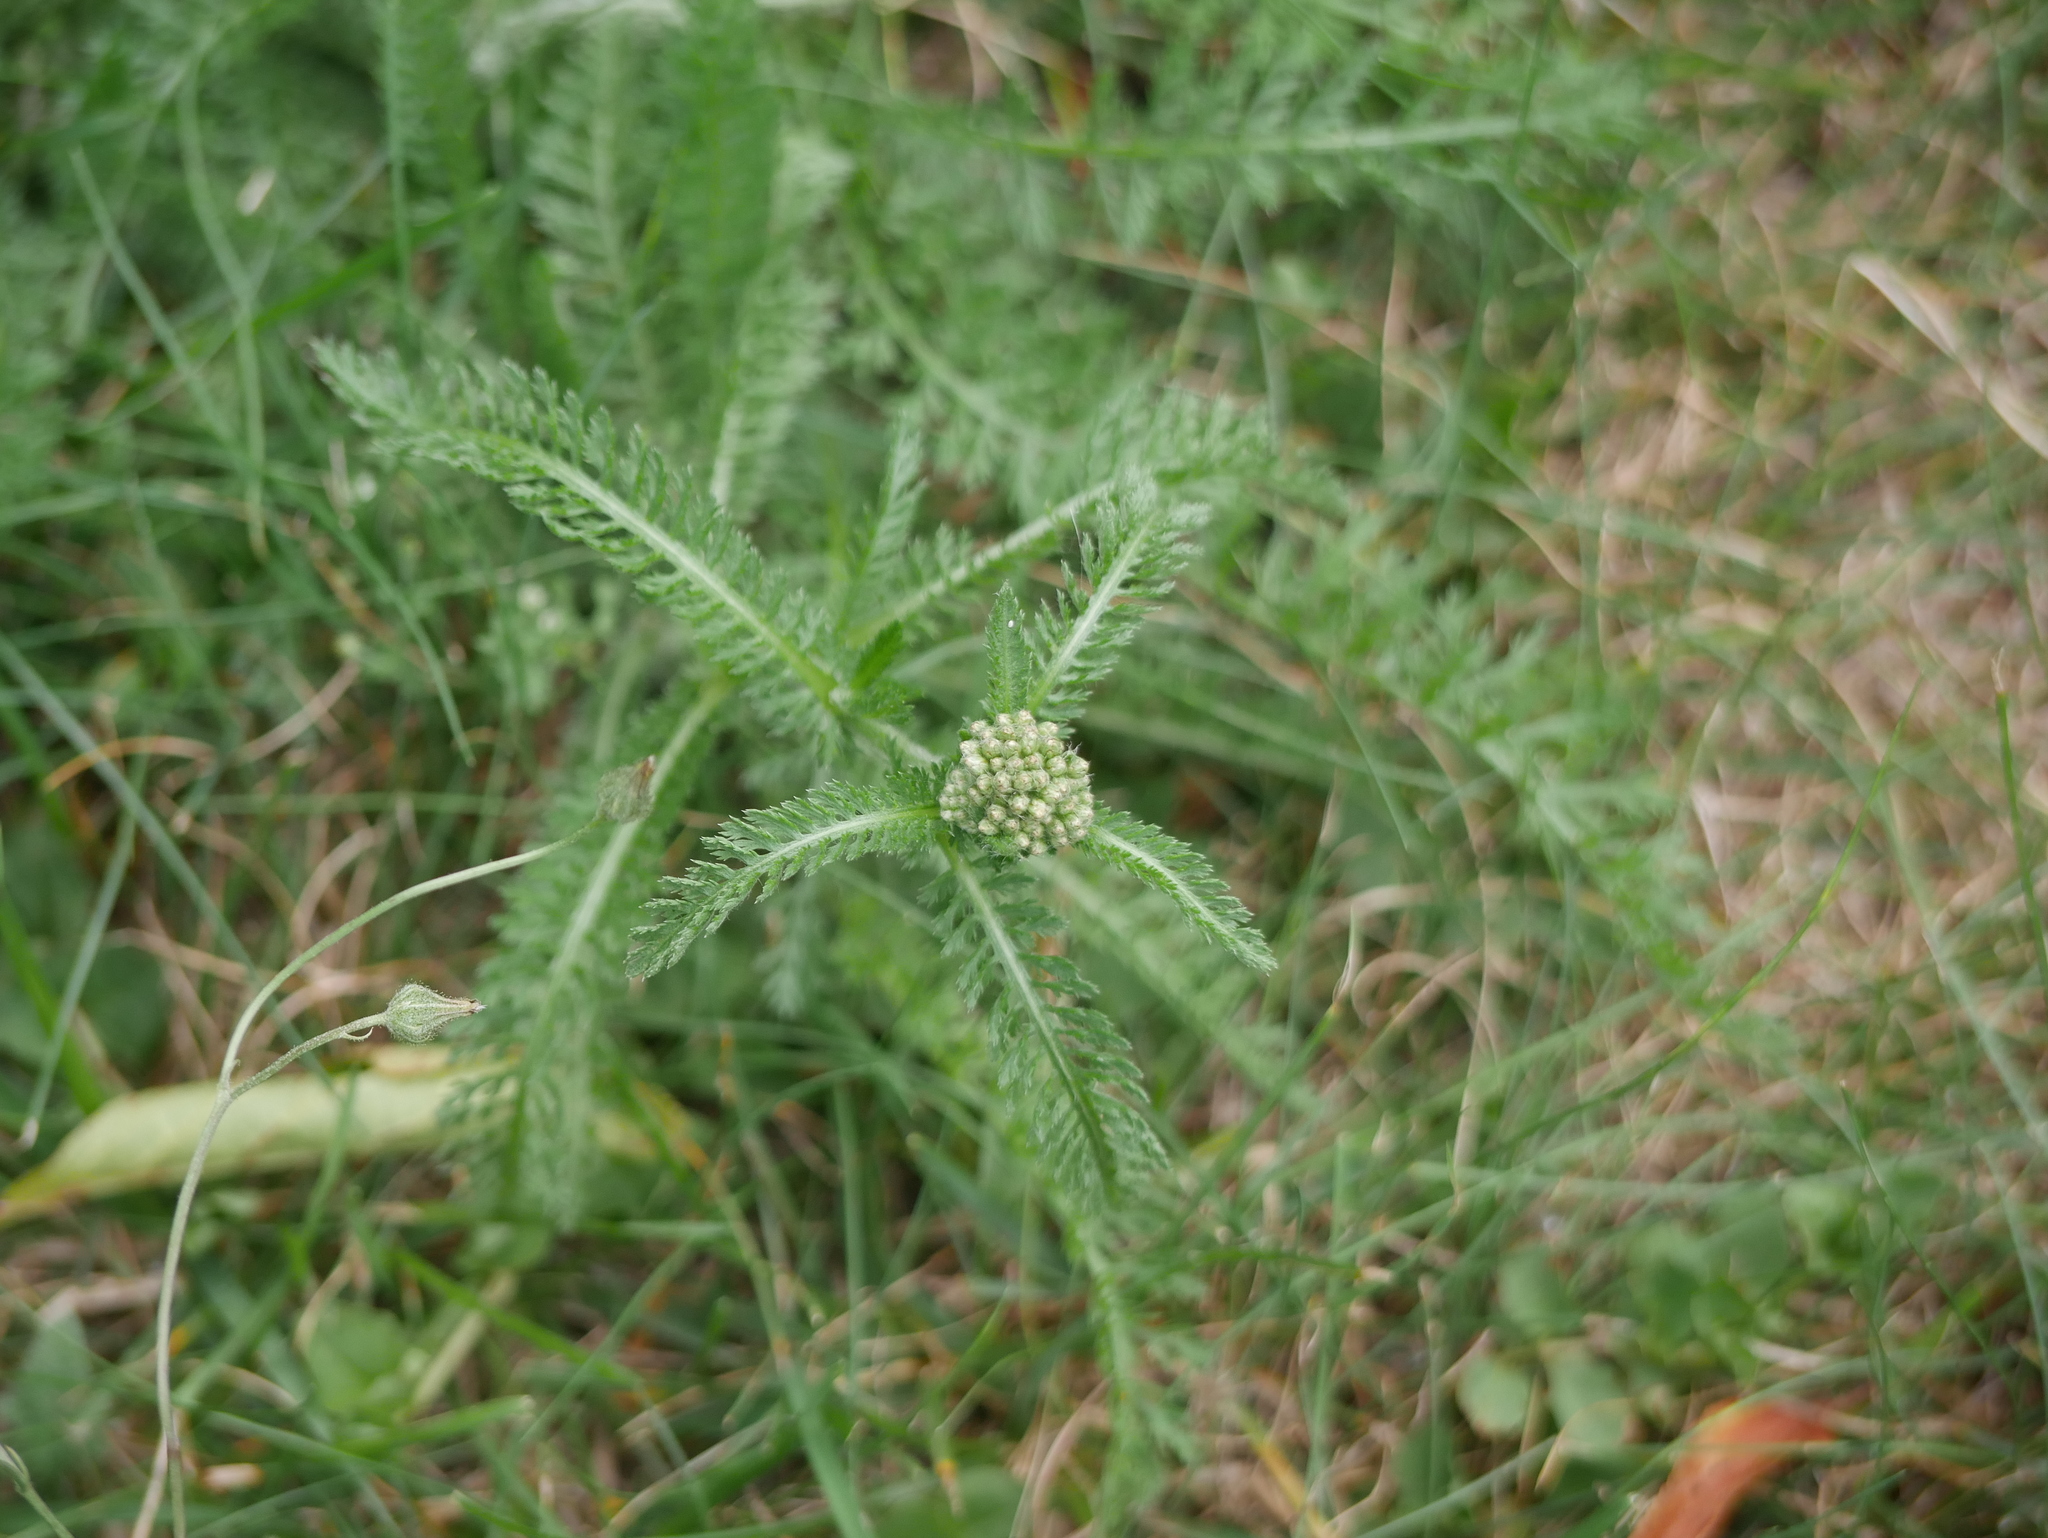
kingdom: Plantae
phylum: Tracheophyta
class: Magnoliopsida
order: Asterales
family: Asteraceae
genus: Achillea
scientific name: Achillea millefolium
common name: Yarrow
